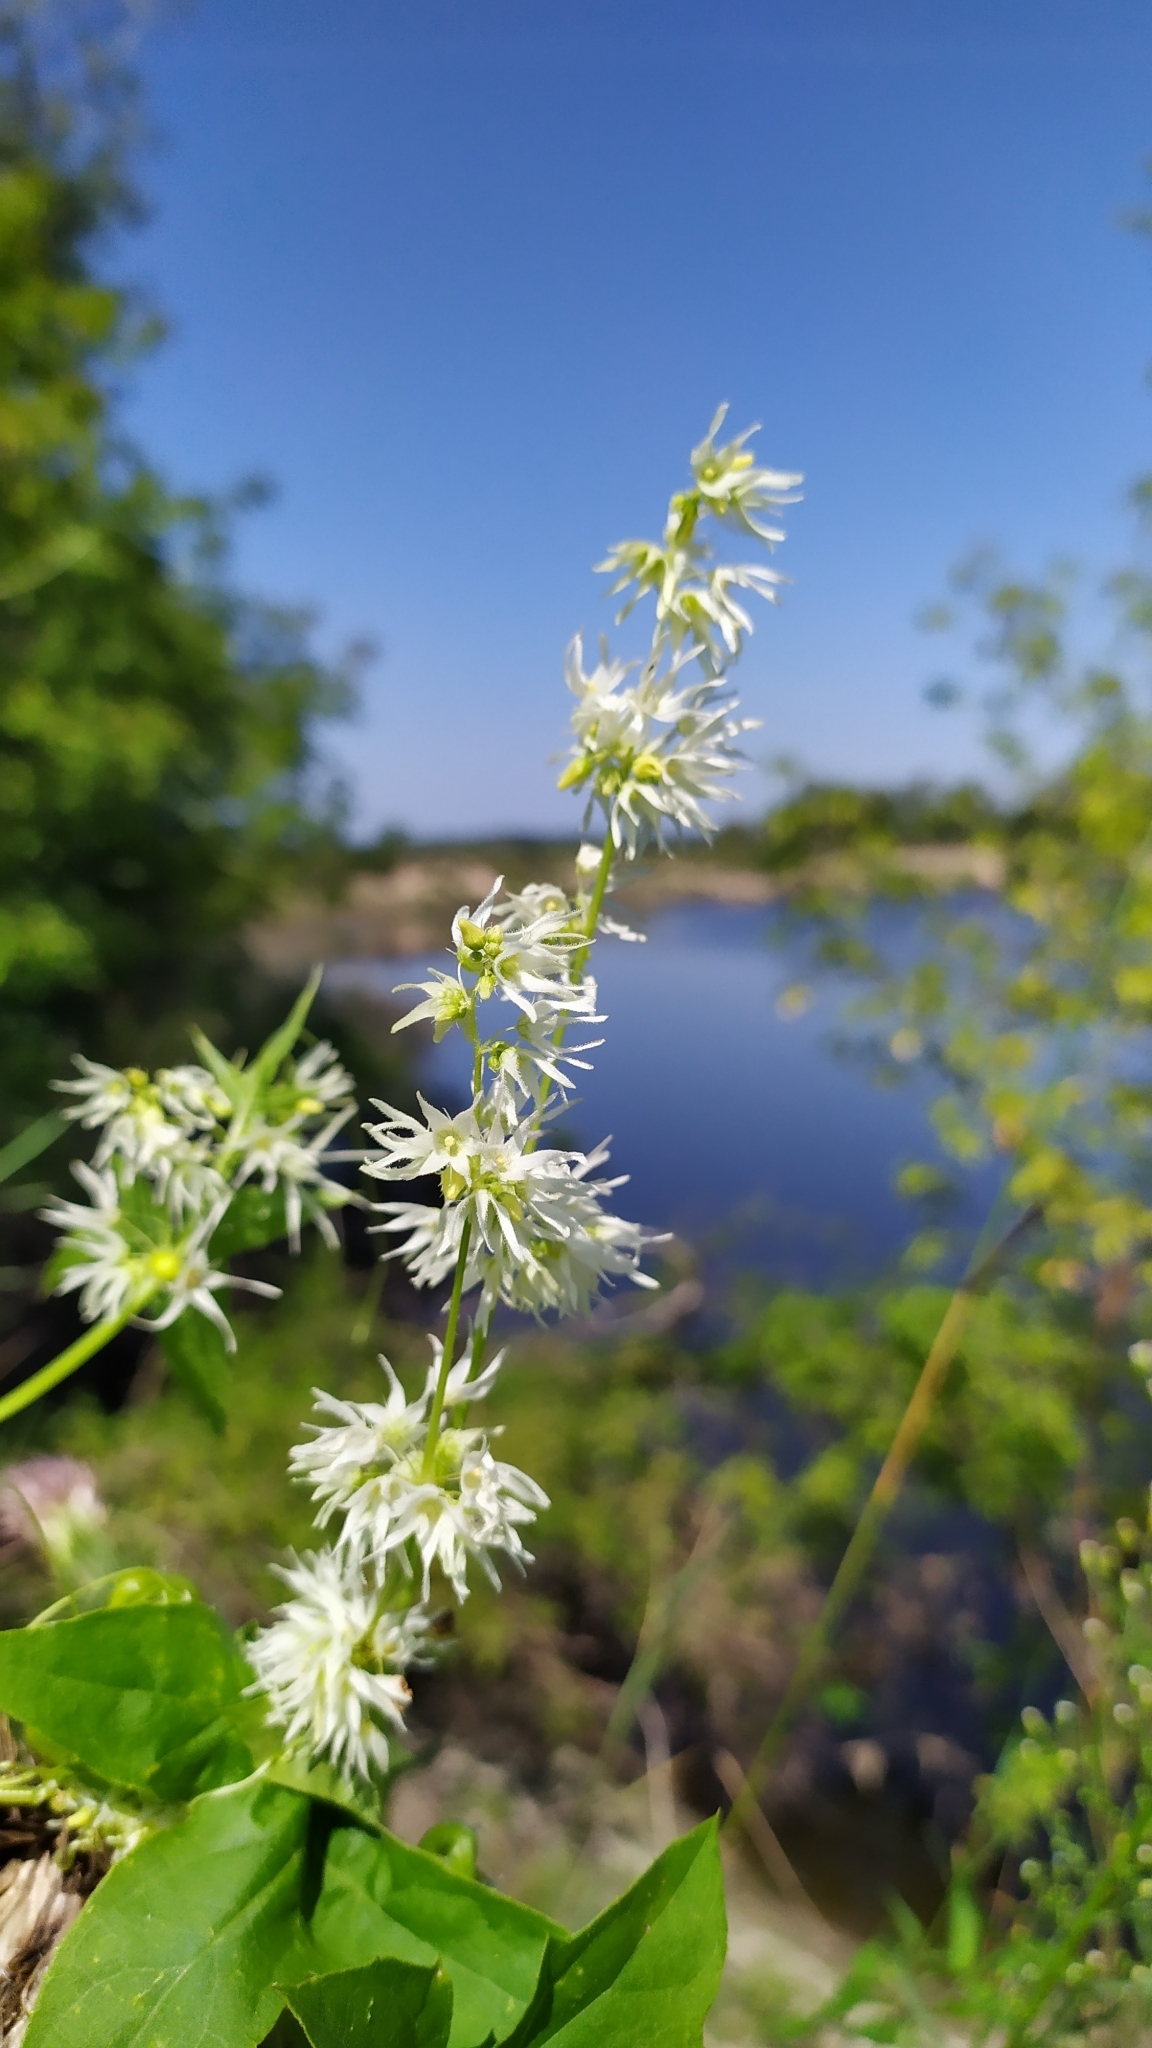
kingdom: Plantae
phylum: Tracheophyta
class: Magnoliopsida
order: Cucurbitales
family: Cucurbitaceae
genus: Echinocystis
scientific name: Echinocystis lobata
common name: Wild cucumber
